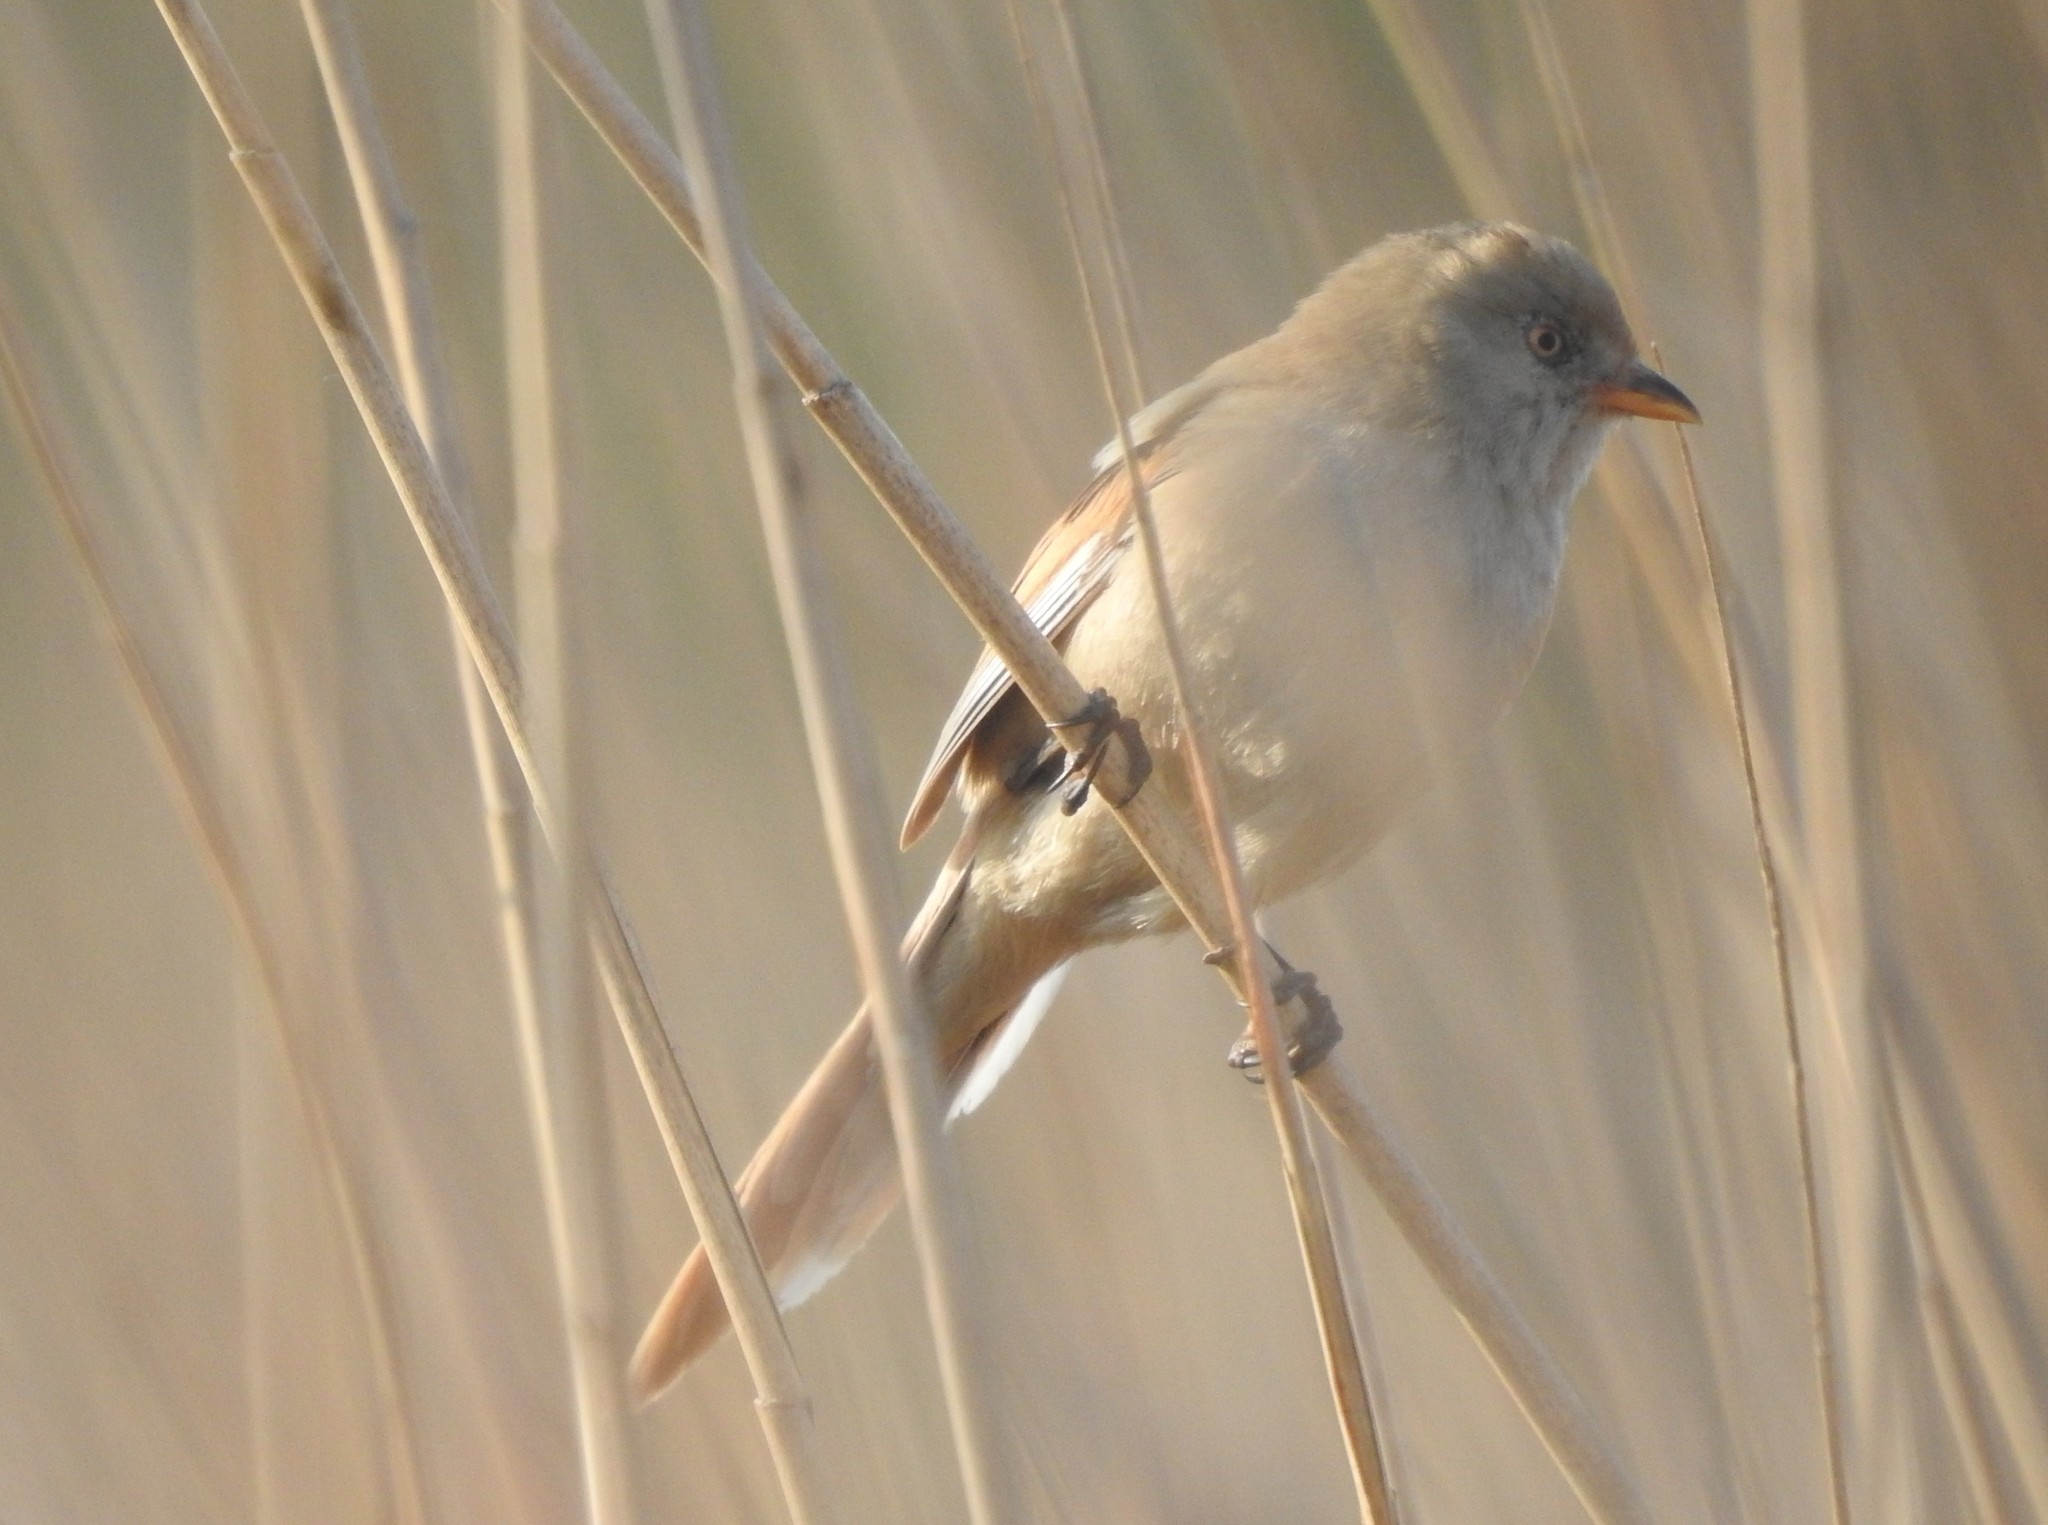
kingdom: Animalia
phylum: Chordata
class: Aves
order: Passeriformes
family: Panuridae
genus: Panurus
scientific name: Panurus biarmicus
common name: Bearded reedling
